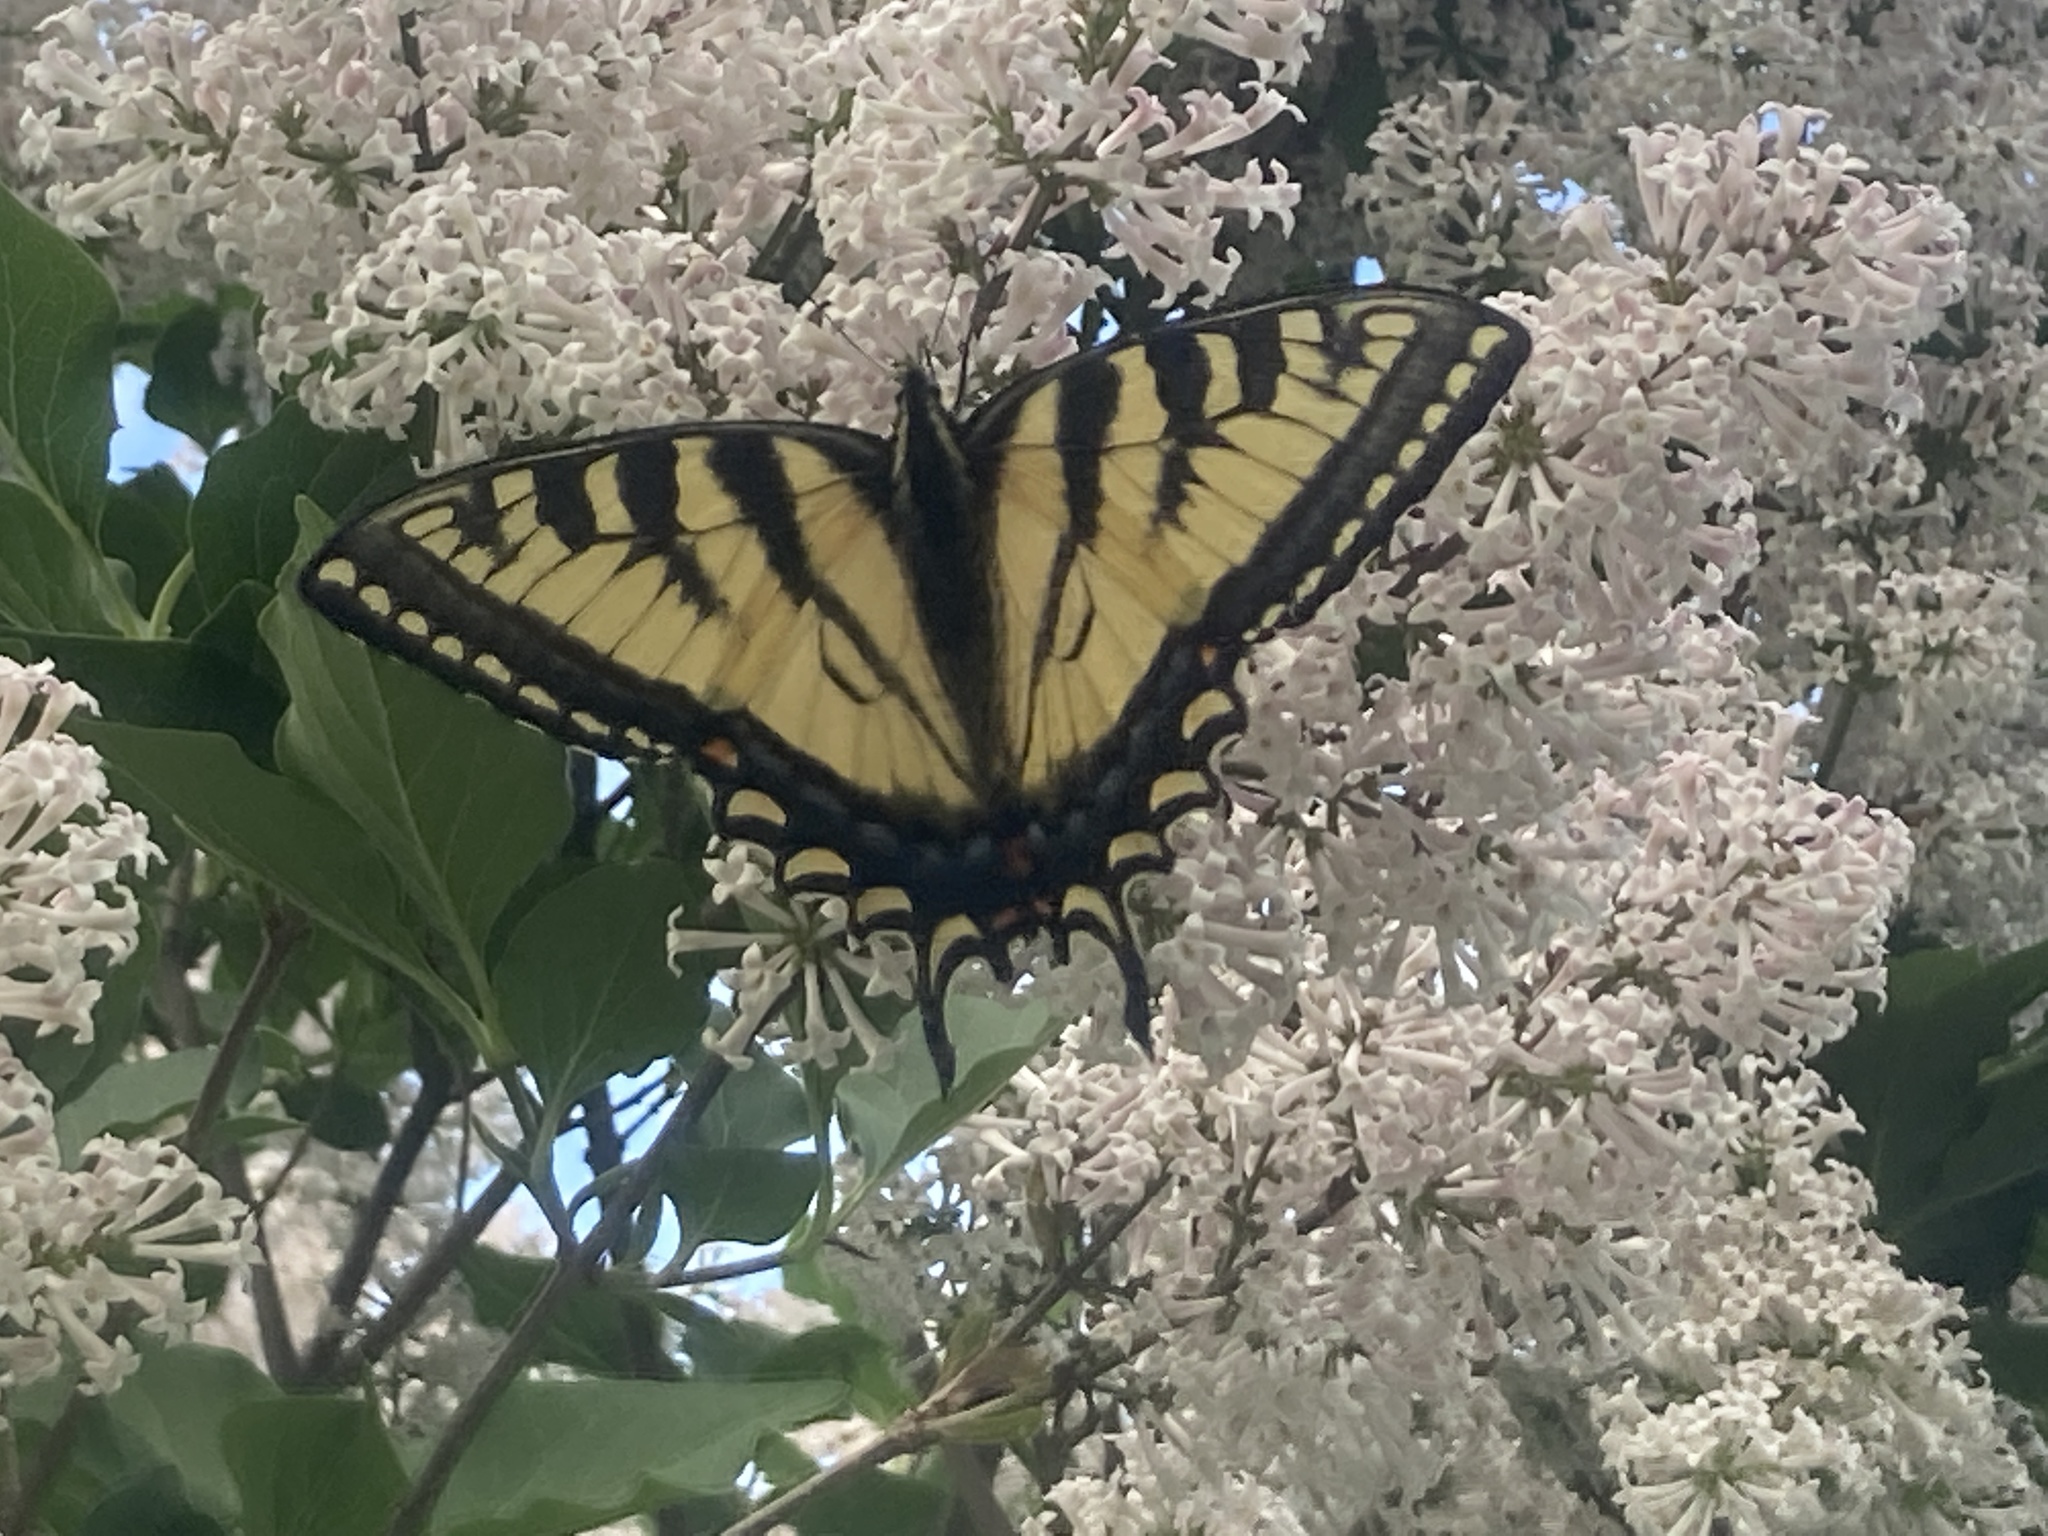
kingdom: Animalia
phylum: Arthropoda
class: Insecta
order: Lepidoptera
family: Papilionidae
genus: Papilio
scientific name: Papilio canadensis
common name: Canadian tiger swallowtail
